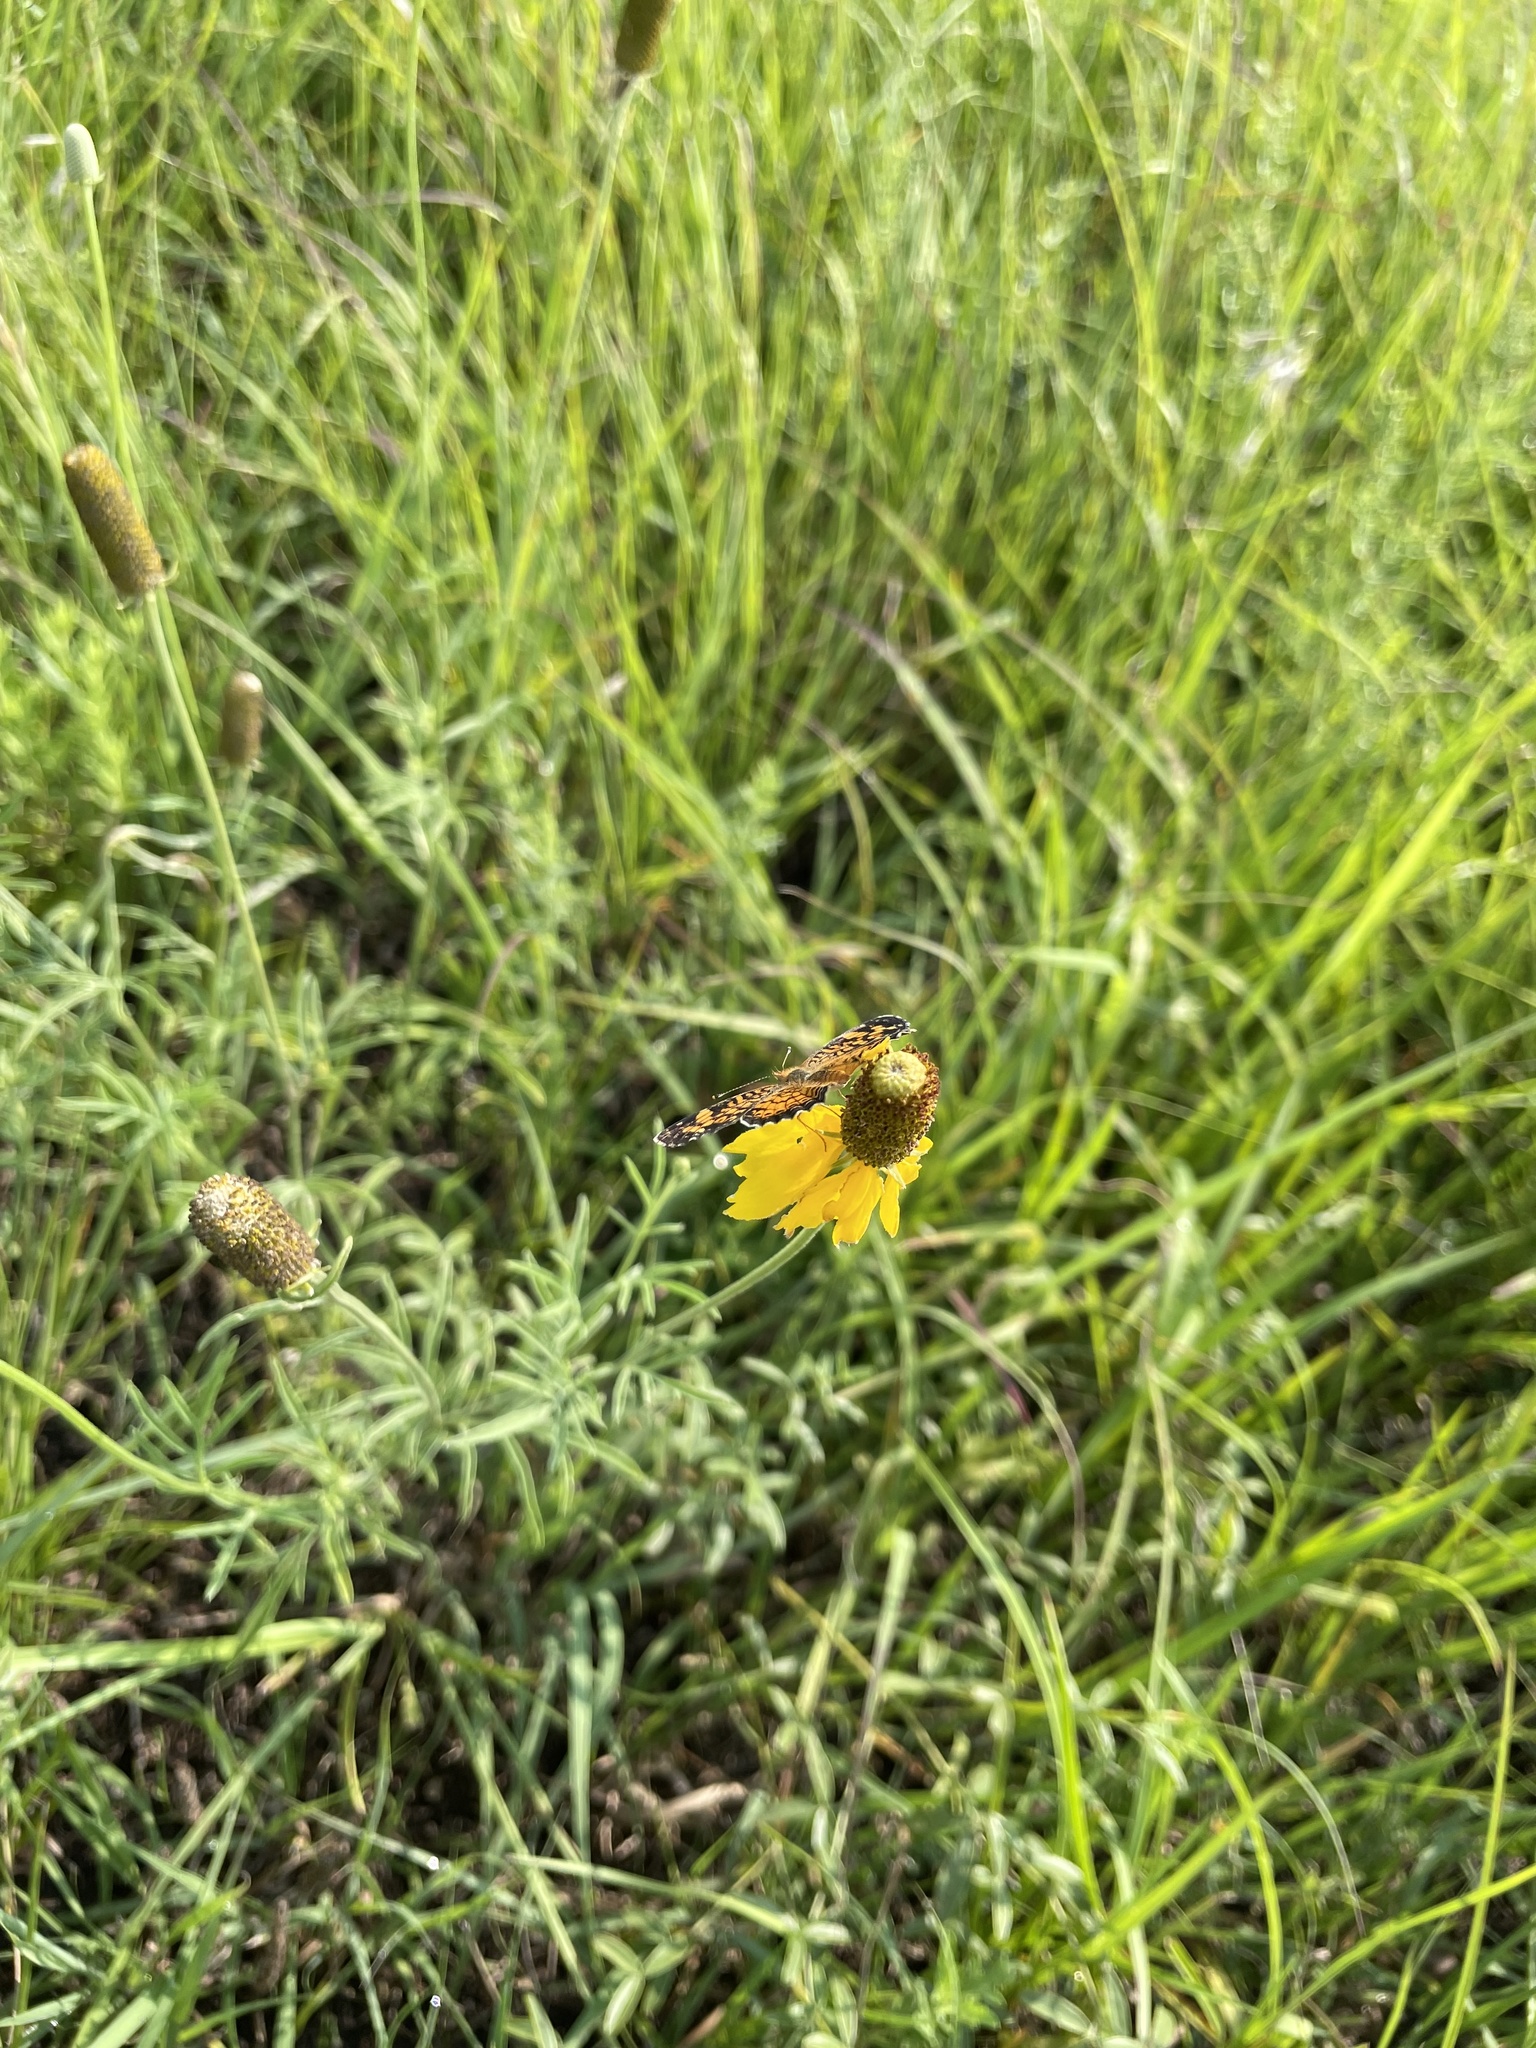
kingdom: Animalia
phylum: Arthropoda
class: Insecta
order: Lepidoptera
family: Nymphalidae
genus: Phyciodes
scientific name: Phyciodes tharos
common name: Pearl crescent
